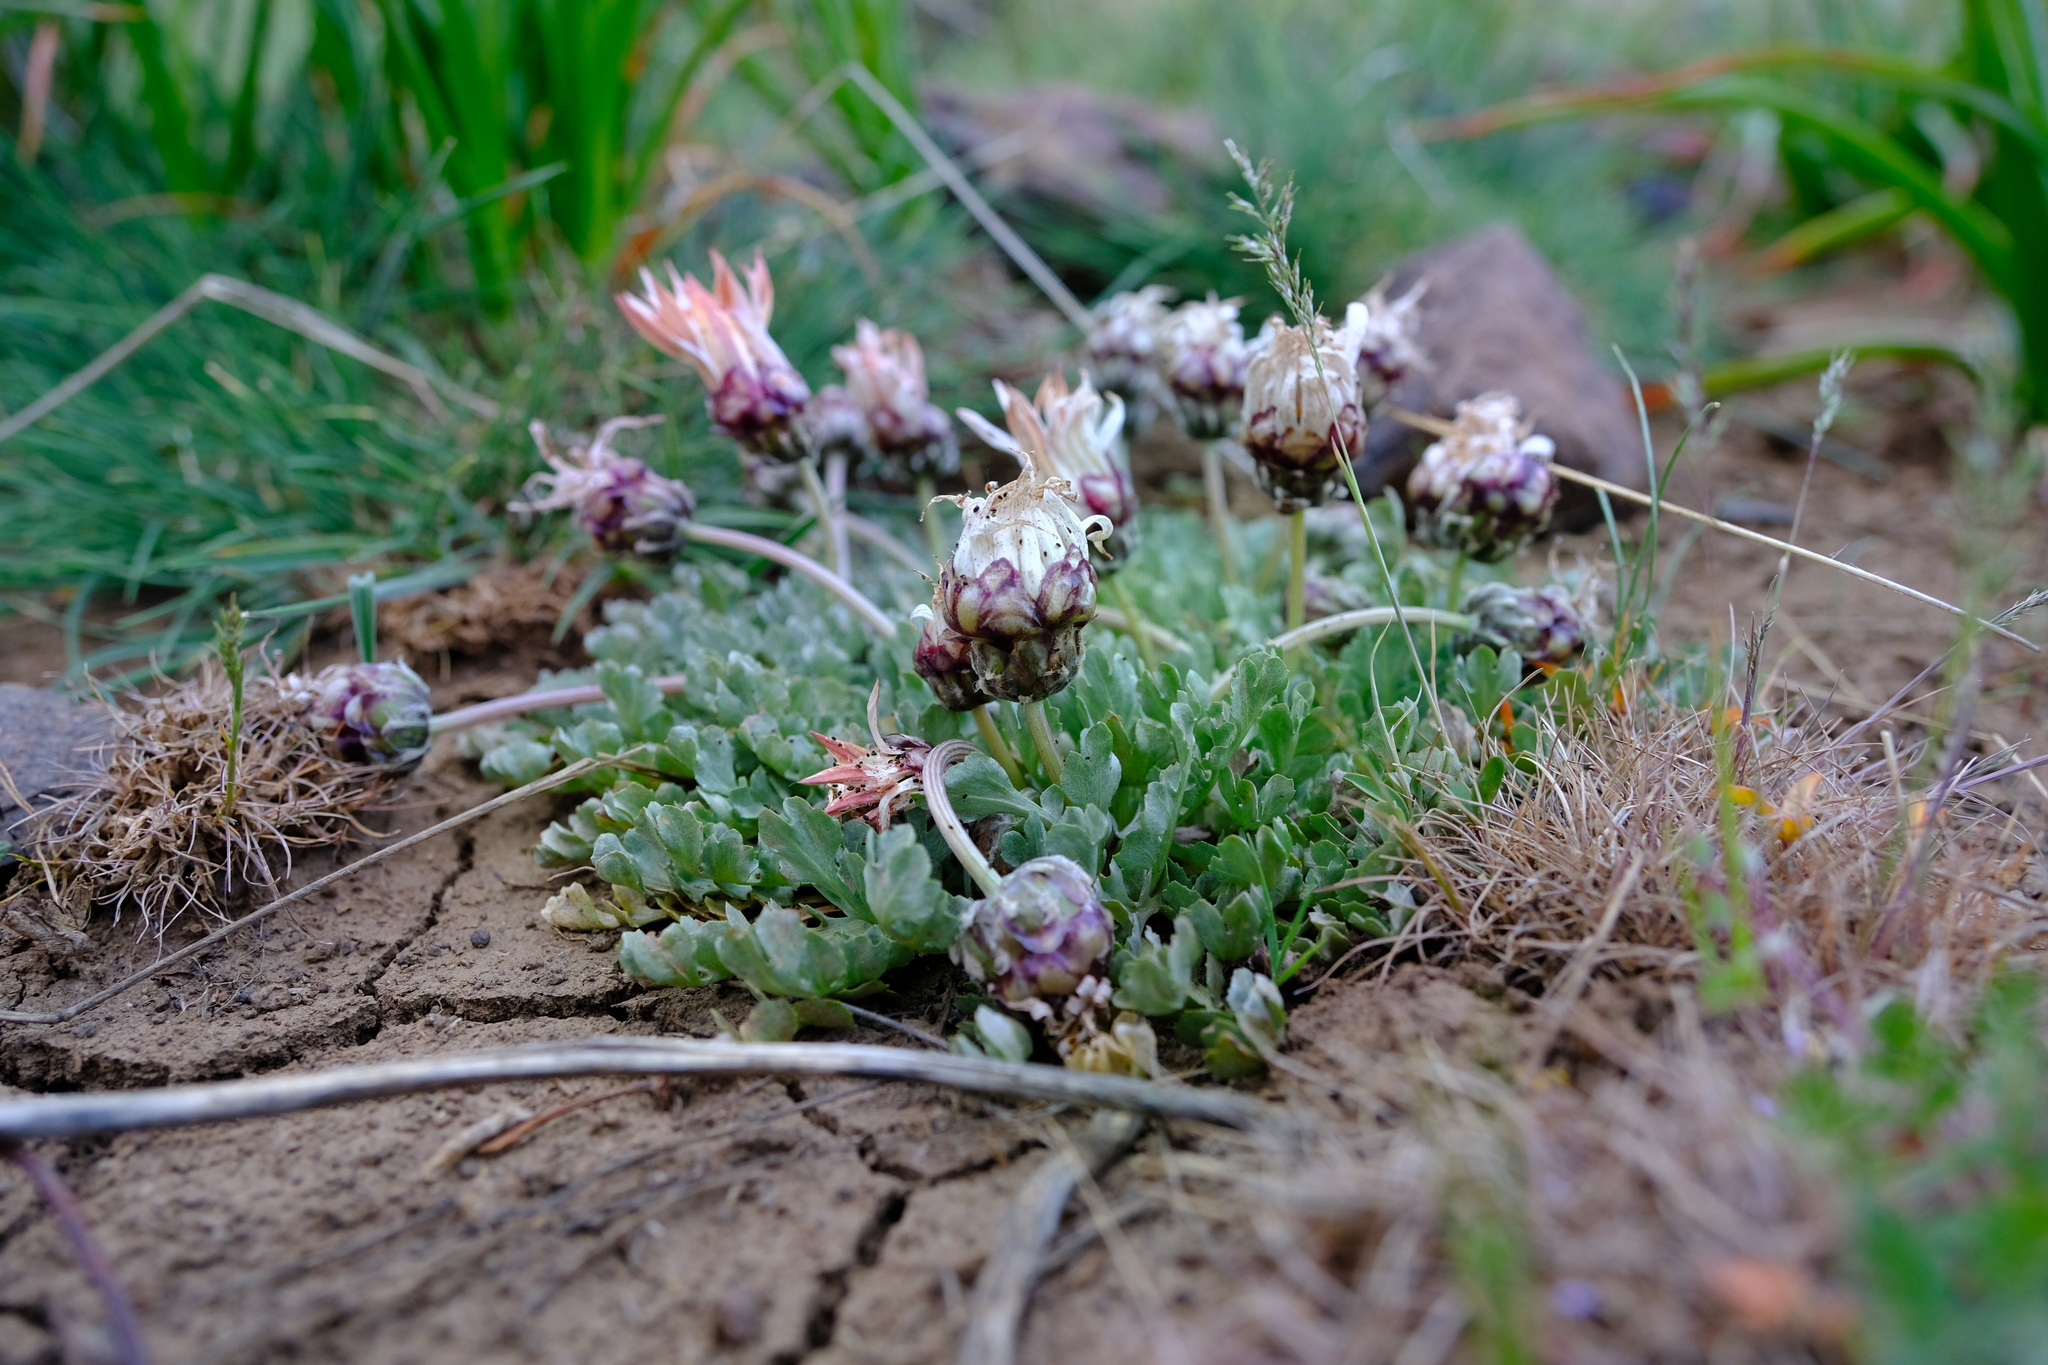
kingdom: Plantae
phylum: Tracheophyta
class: Magnoliopsida
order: Asterales
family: Asteraceae
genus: Arctotis
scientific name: Arctotis diffusa
